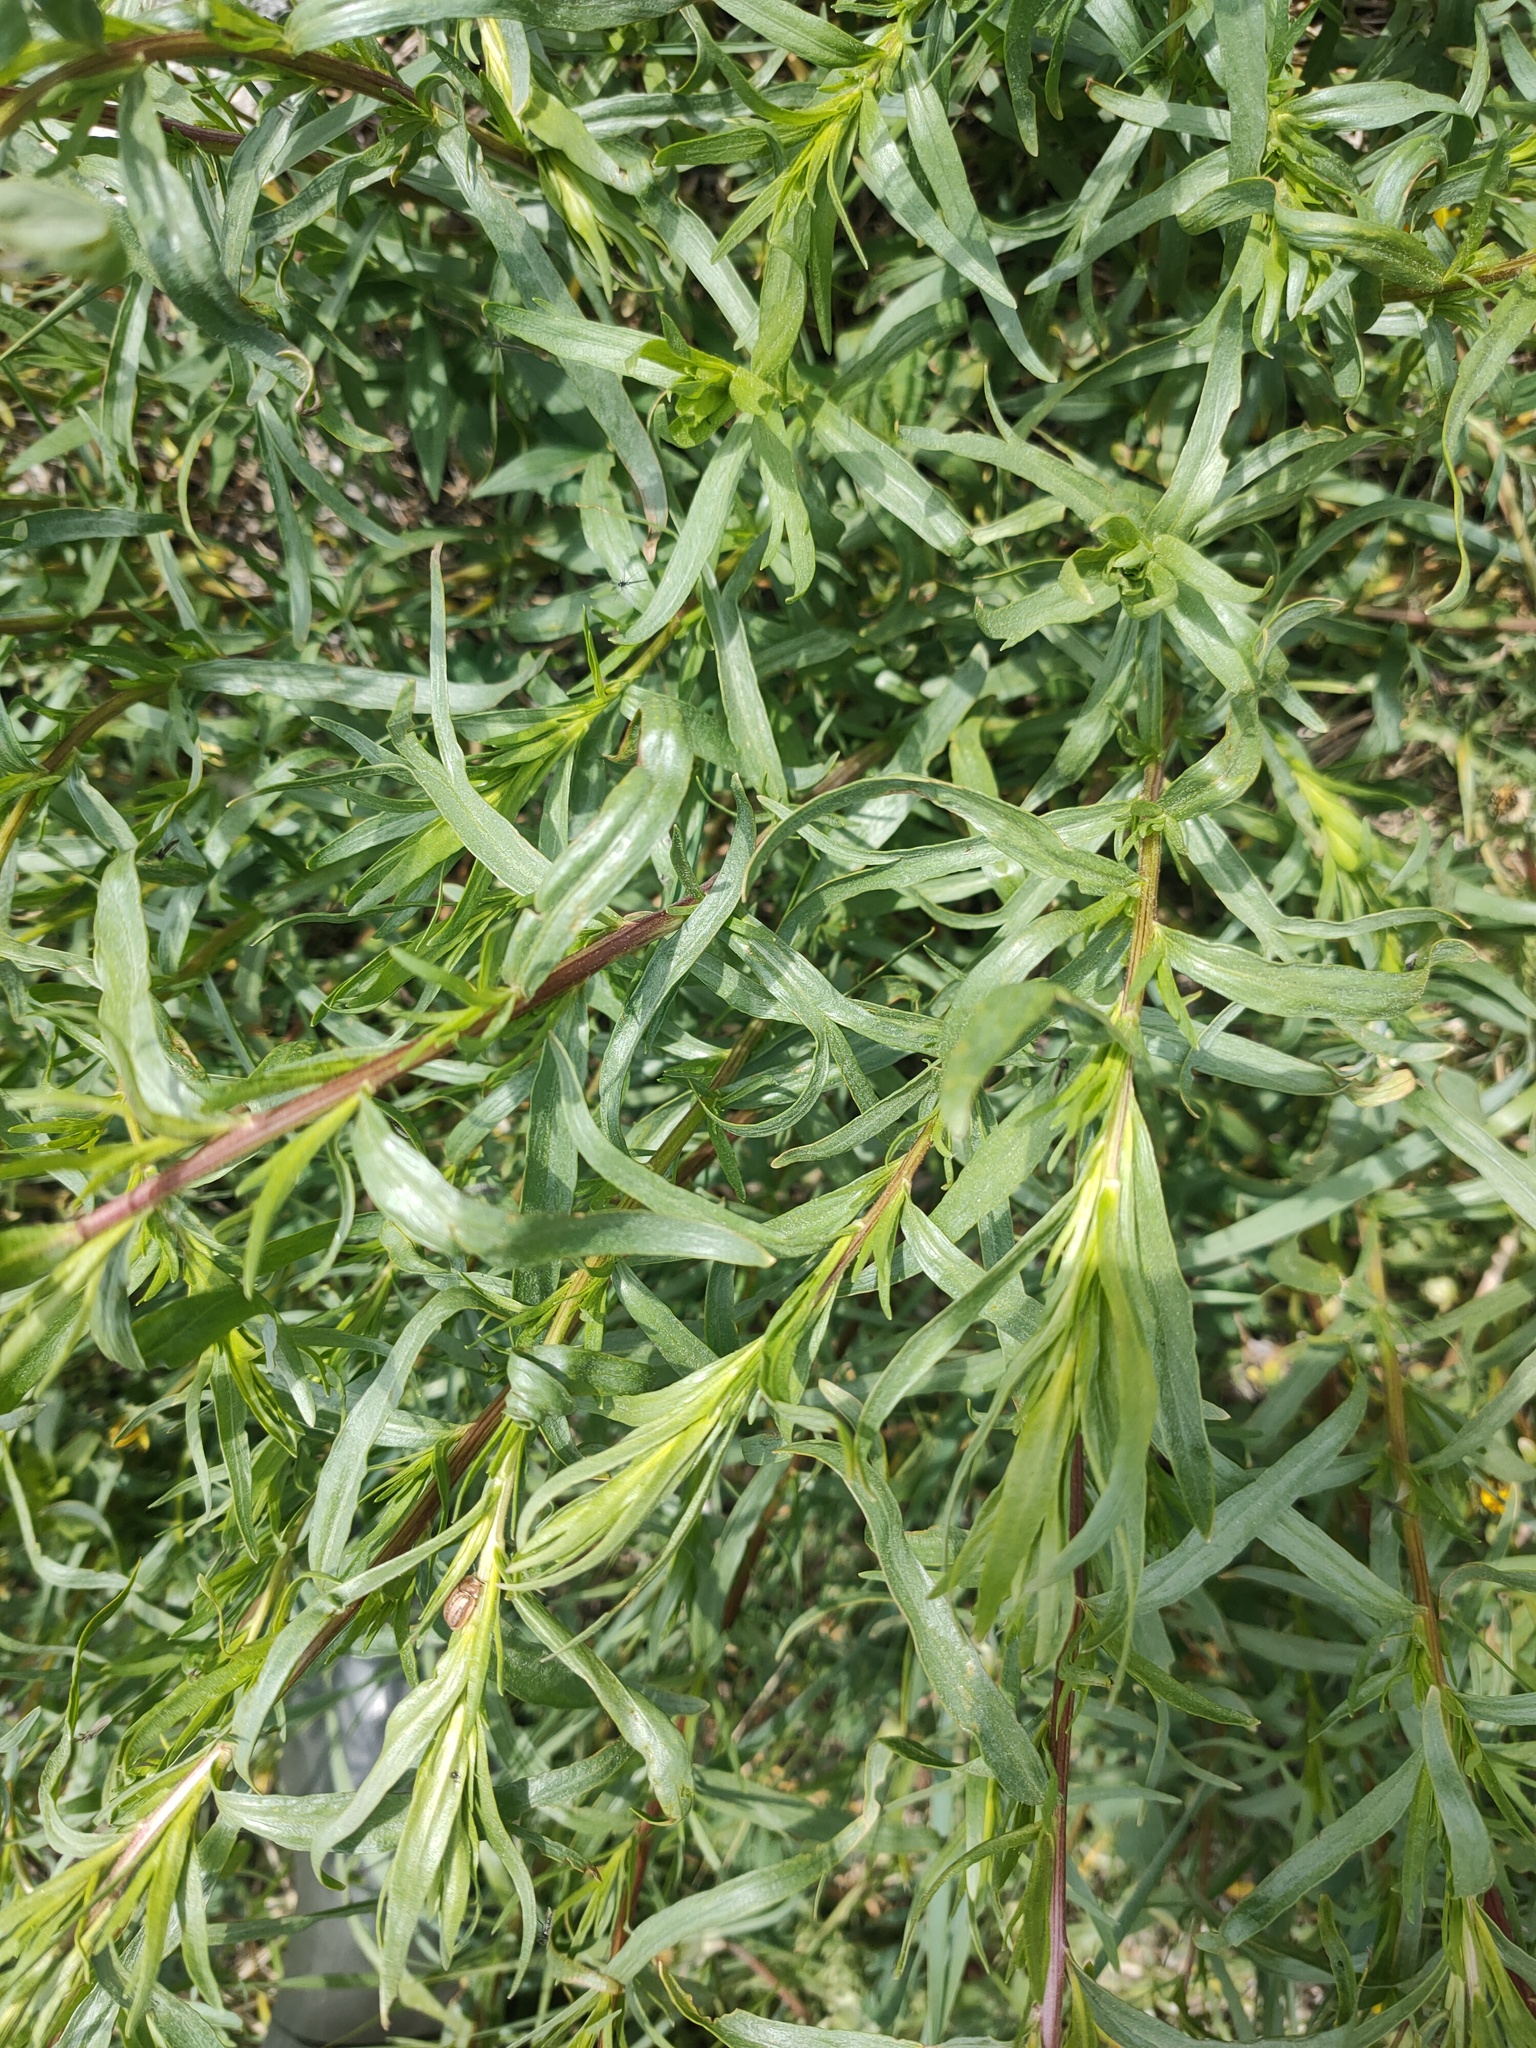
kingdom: Plantae
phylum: Tracheophyta
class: Magnoliopsida
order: Asterales
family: Asteraceae
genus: Artemisia
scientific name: Artemisia dracunculus
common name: Tarragon
